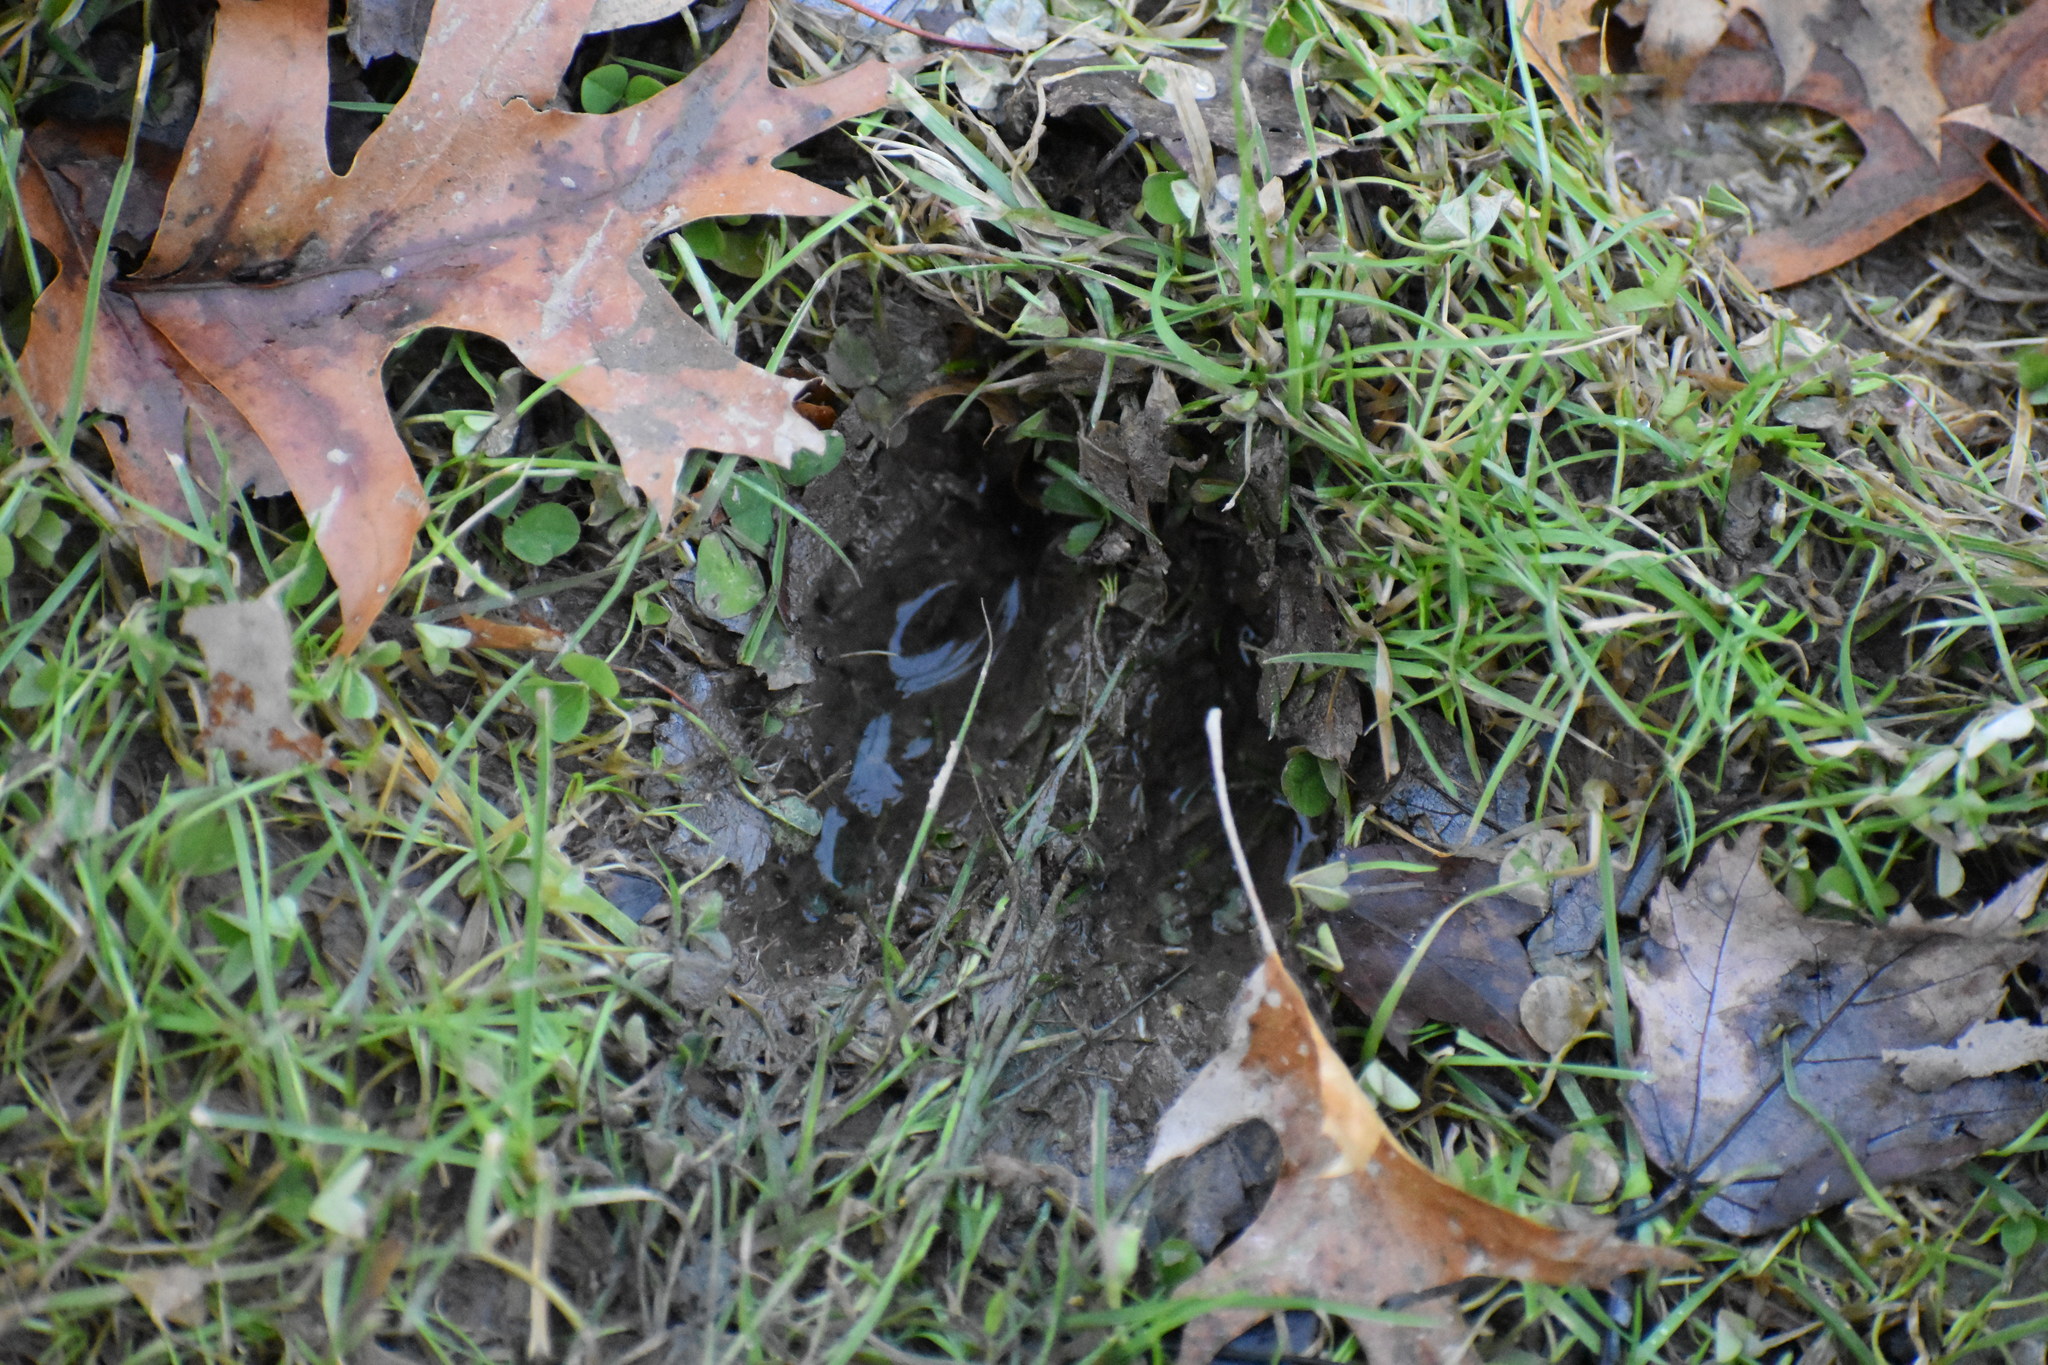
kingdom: Animalia
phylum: Chordata
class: Mammalia
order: Artiodactyla
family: Cervidae
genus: Odocoileus
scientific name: Odocoileus virginianus
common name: White-tailed deer
